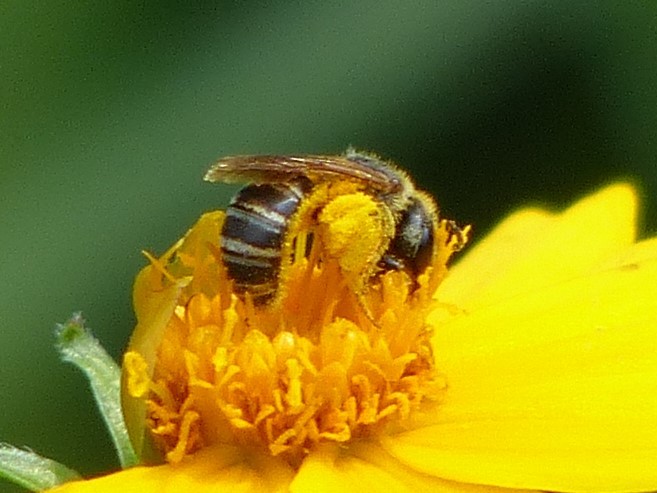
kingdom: Animalia
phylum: Arthropoda
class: Insecta
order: Hymenoptera
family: Halictidae
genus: Halictus
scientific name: Halictus ligatus
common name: Ligated furrow bee
